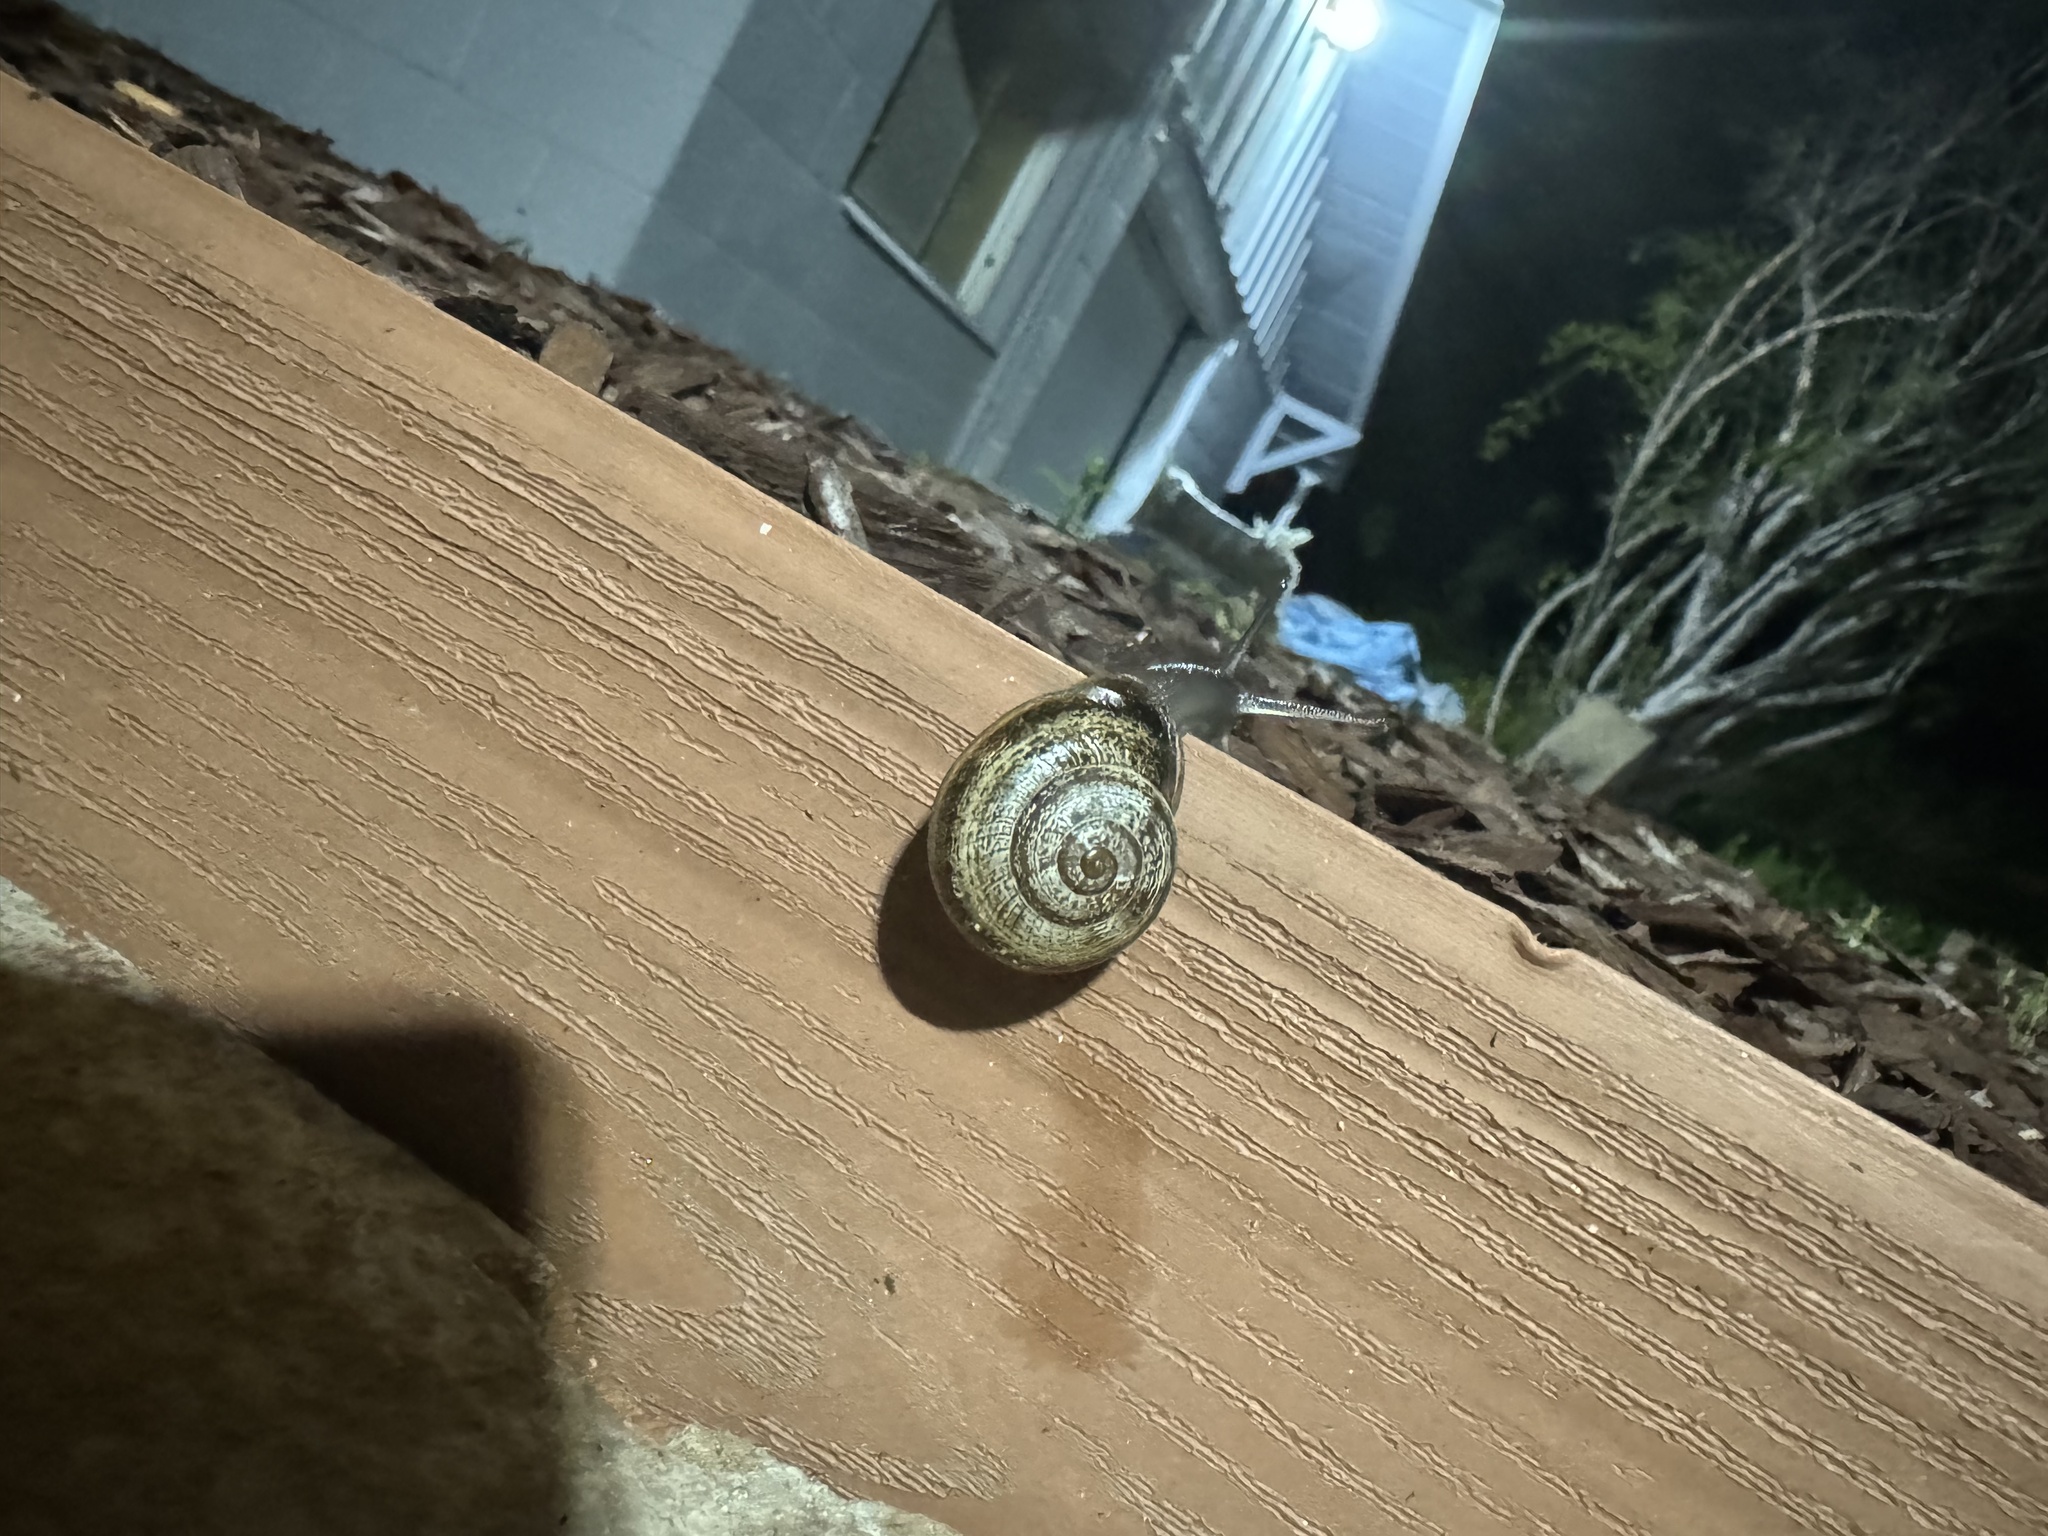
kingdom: Animalia
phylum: Mollusca
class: Gastropoda
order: Stylommatophora
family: Helicidae
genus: Otala
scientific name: Otala lactea
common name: Milk snail
